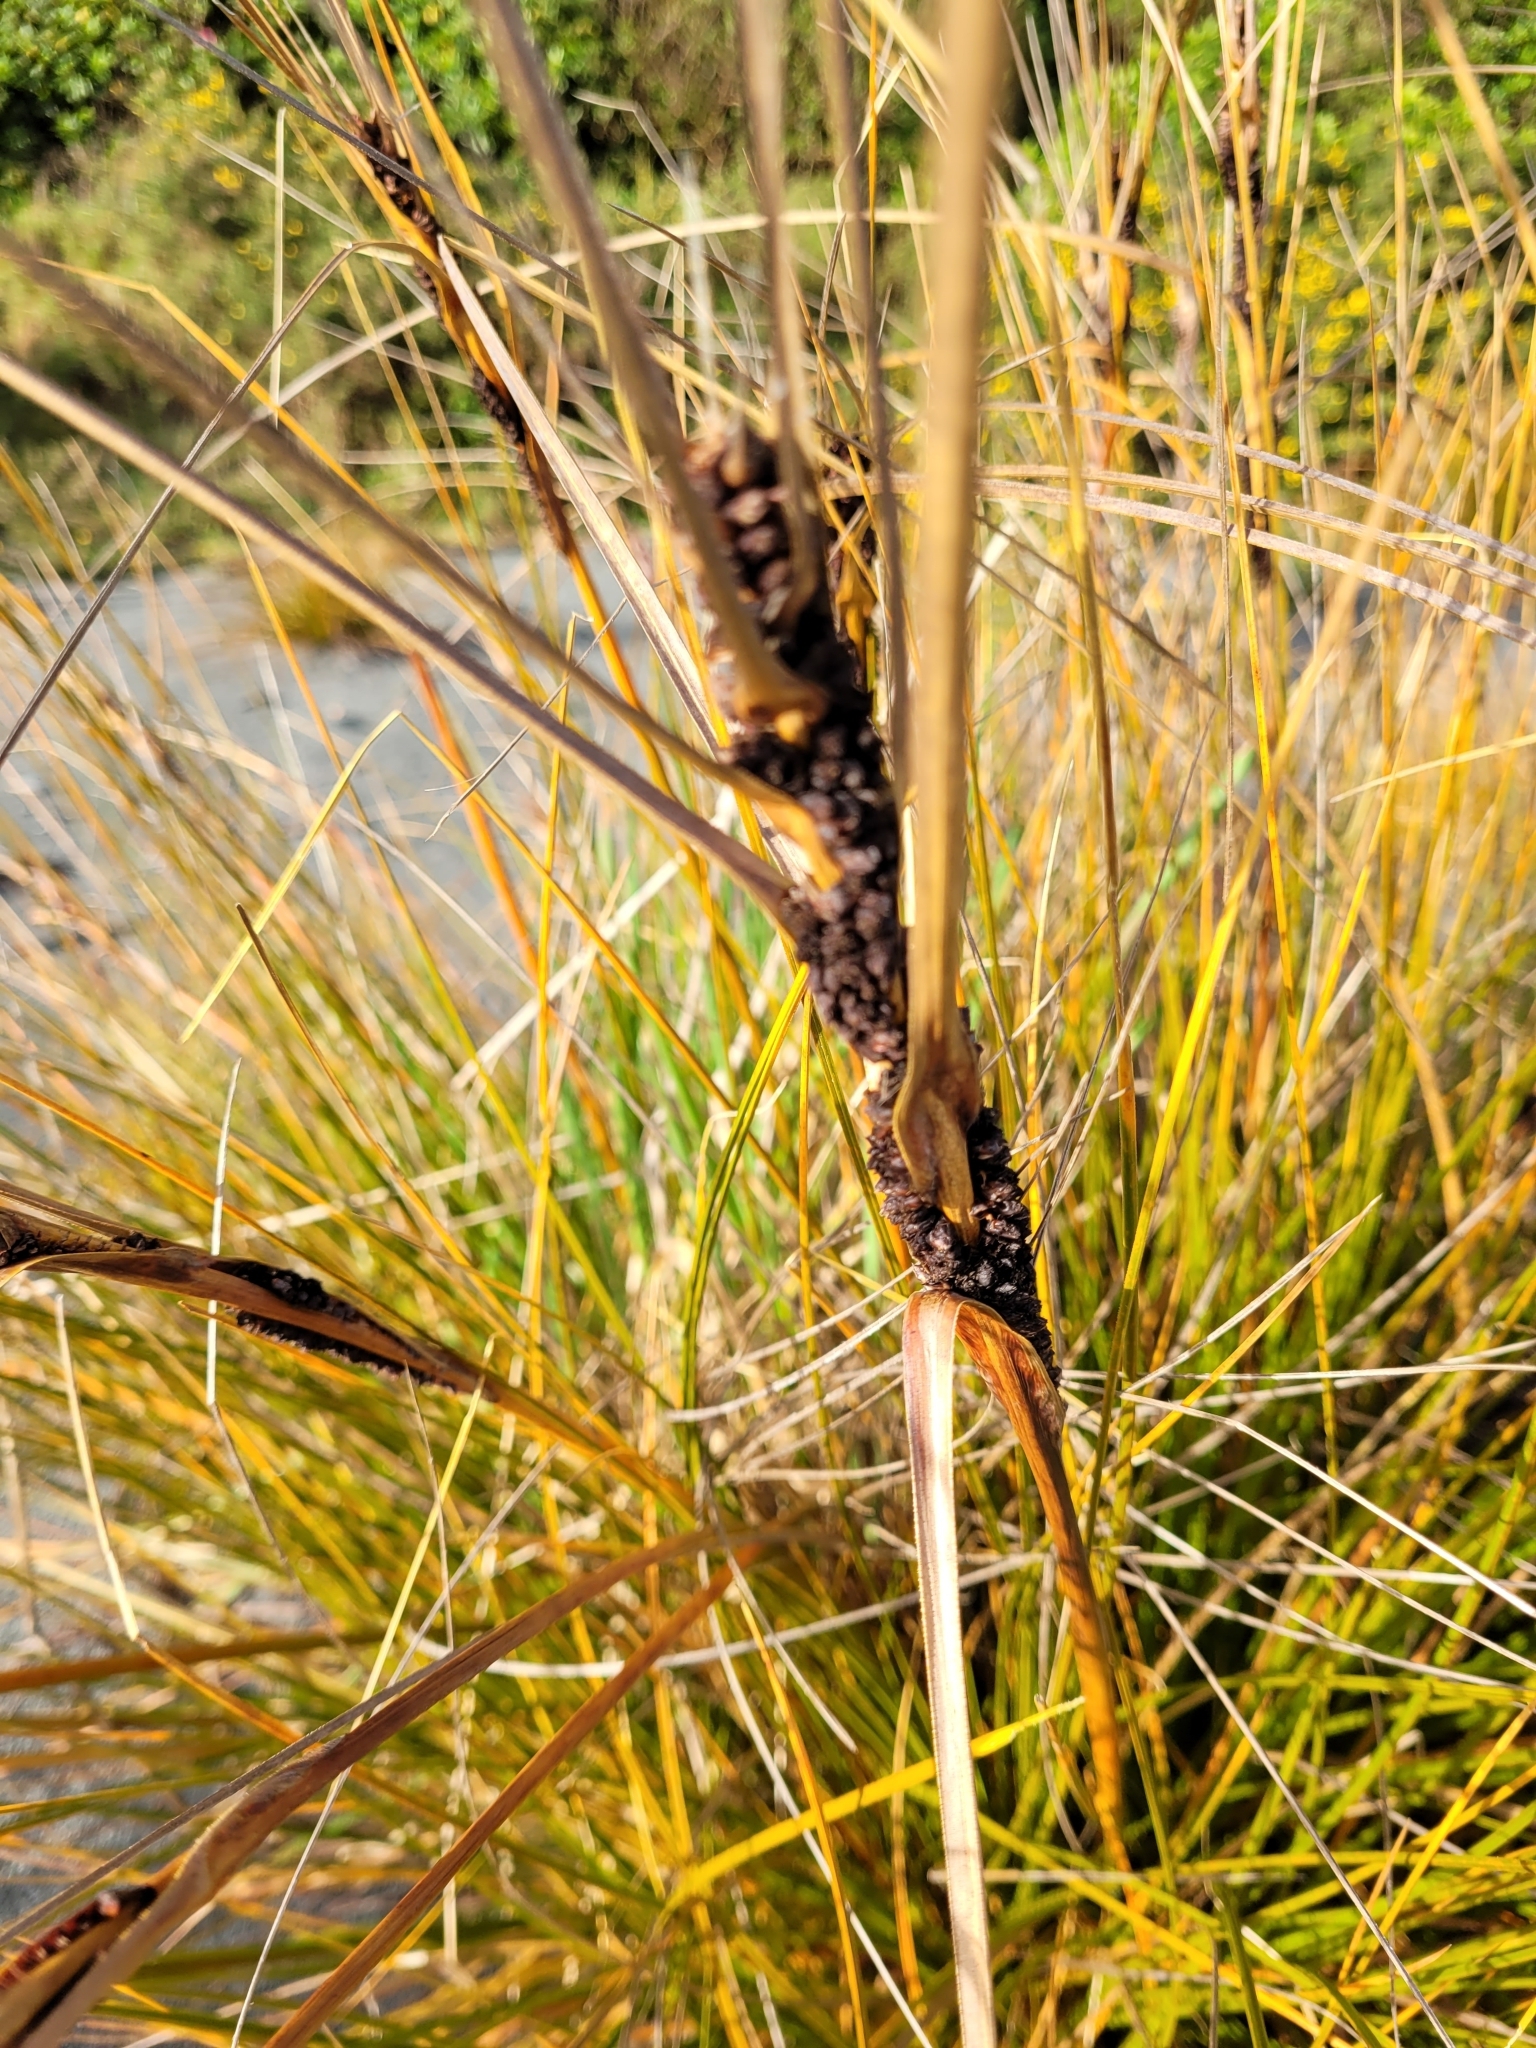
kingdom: Plantae
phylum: Tracheophyta
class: Liliopsida
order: Poales
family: Cyperaceae
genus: Ficinia
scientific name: Ficinia spiralis
